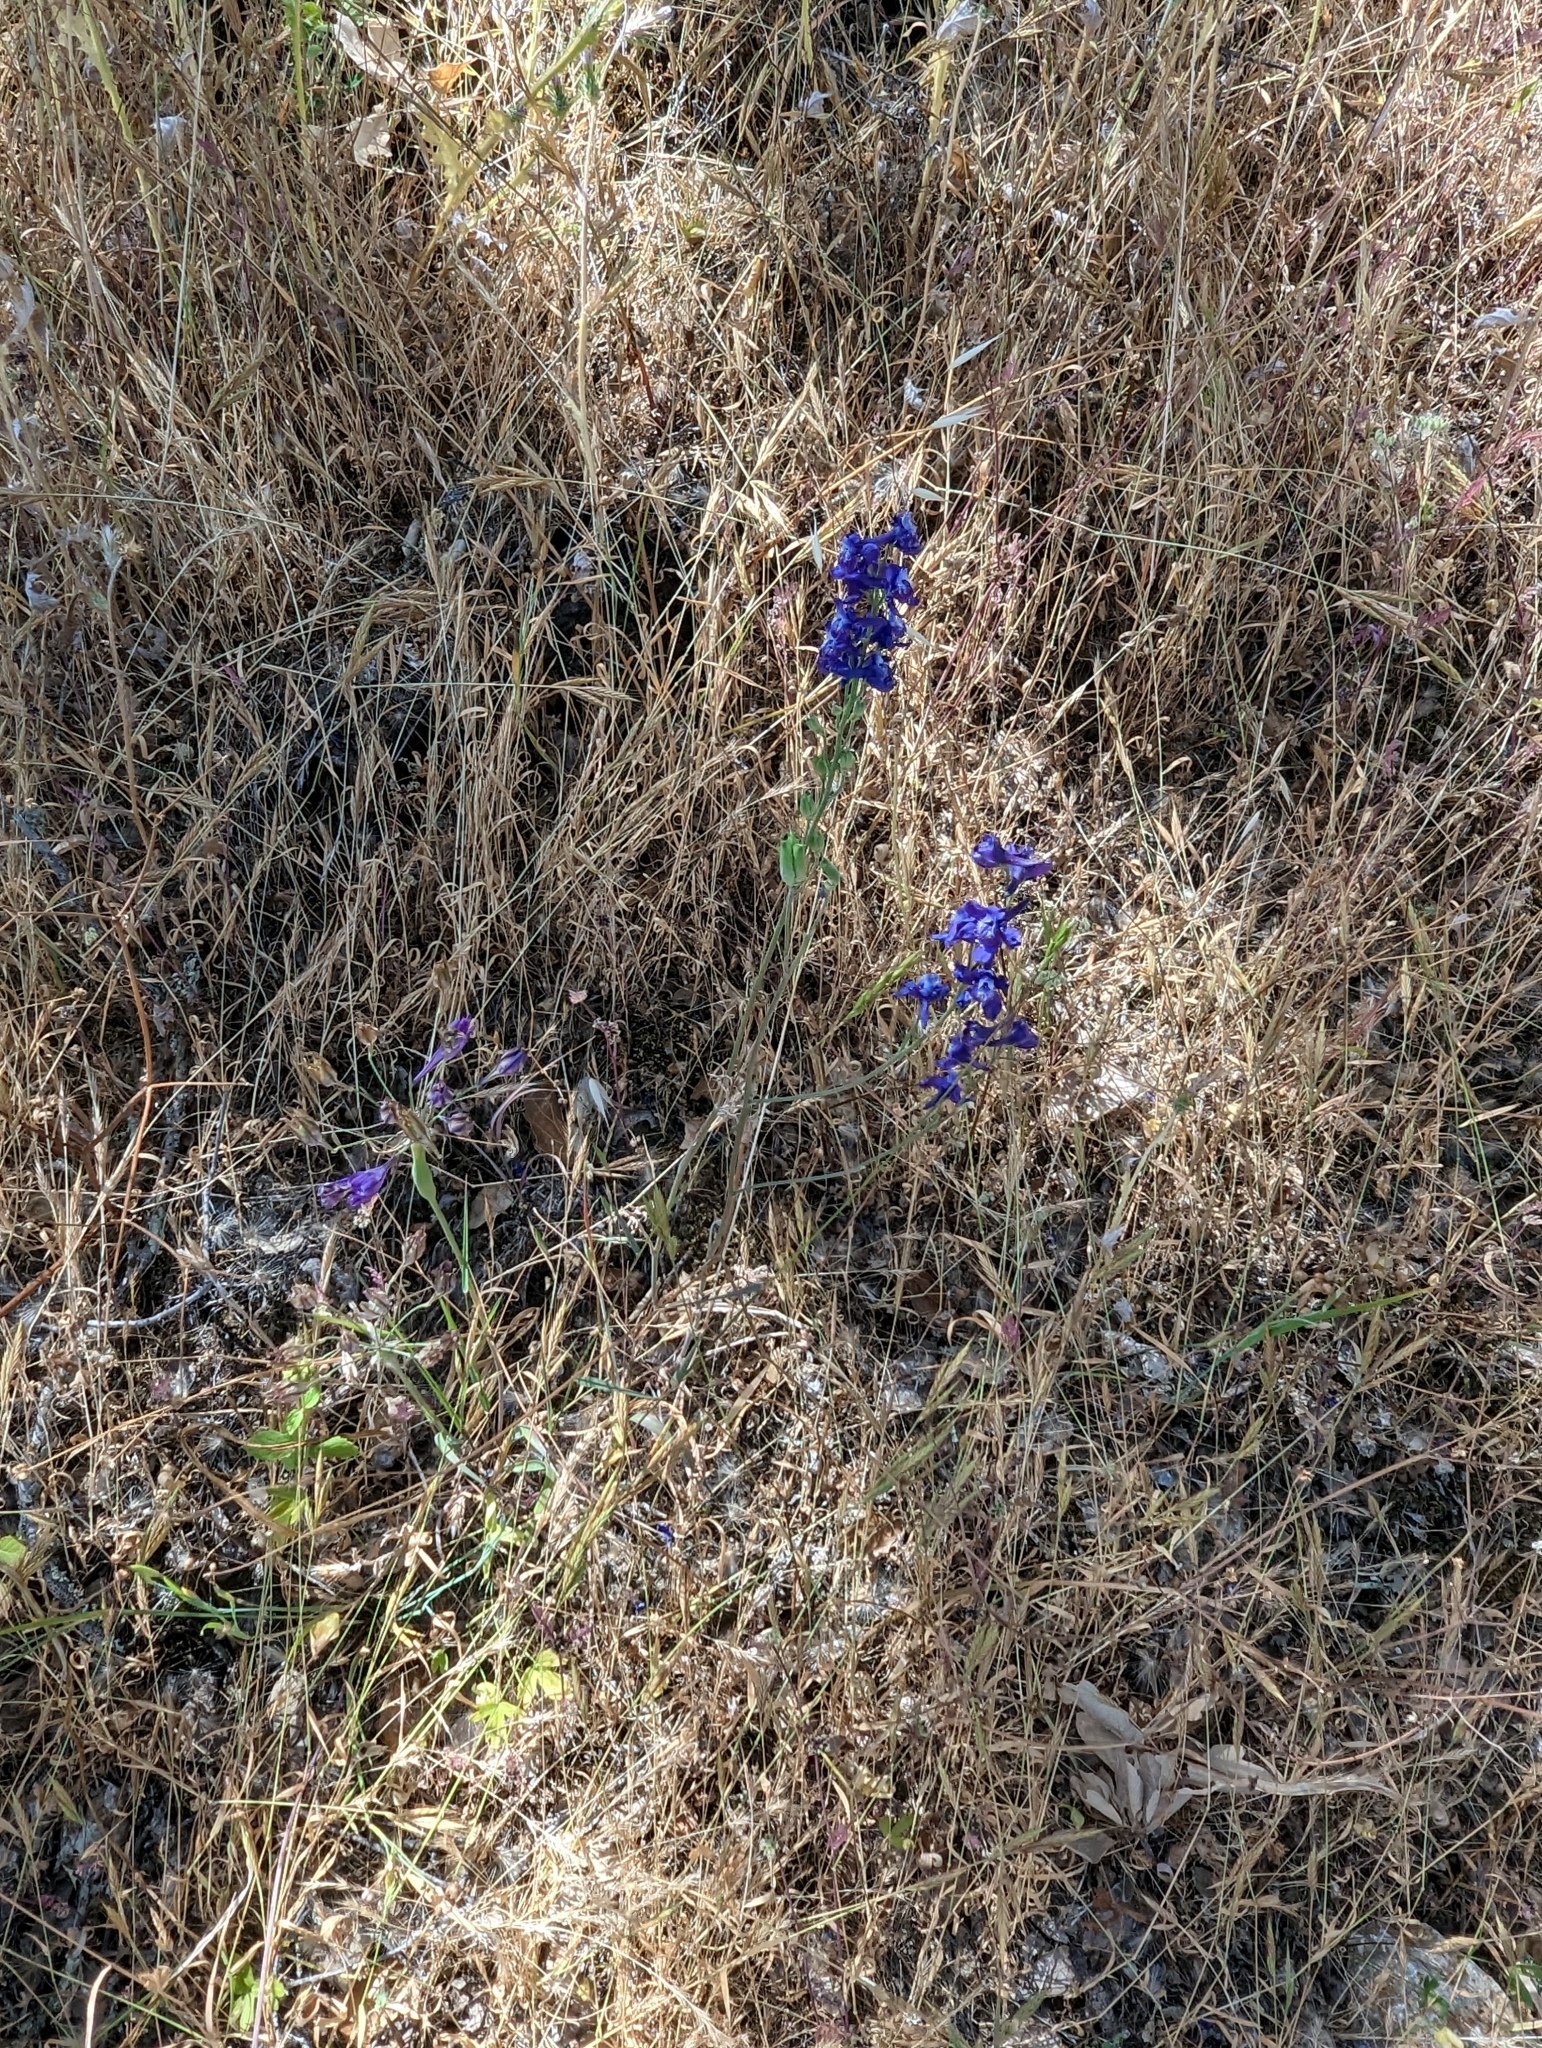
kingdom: Plantae
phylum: Tracheophyta
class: Magnoliopsida
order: Ranunculales
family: Ranunculaceae
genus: Delphinium
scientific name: Delphinium hesperium
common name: Western larkspur
